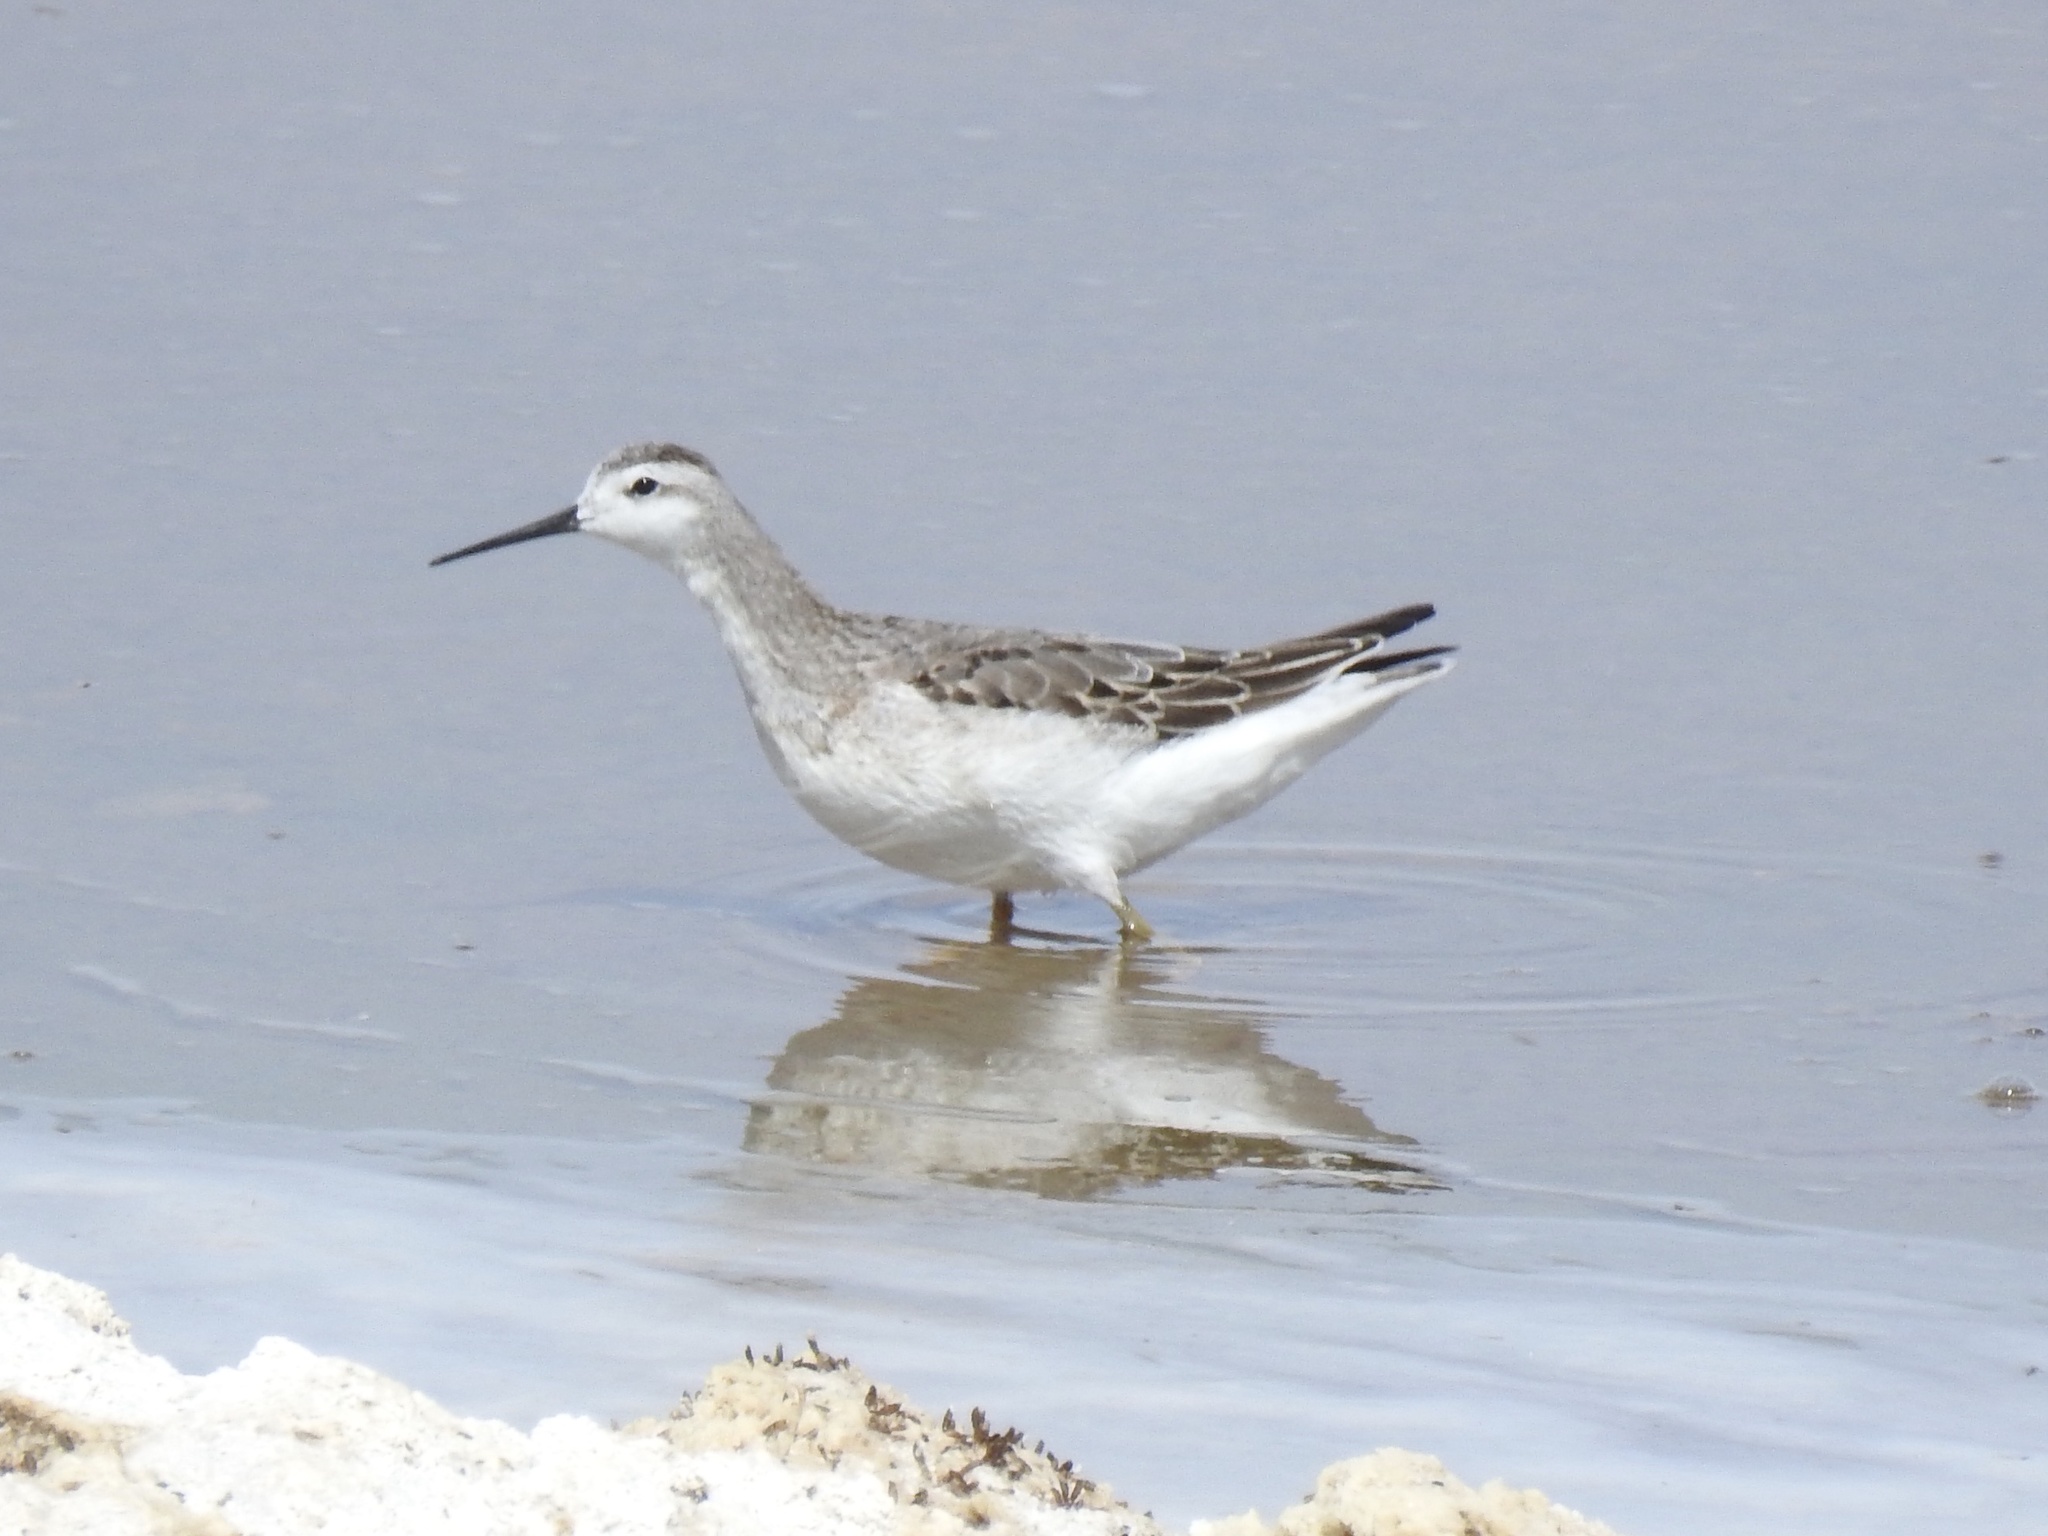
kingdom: Animalia
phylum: Chordata
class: Aves
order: Charadriiformes
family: Scolopacidae
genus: Phalaropus
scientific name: Phalaropus tricolor
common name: Wilson's phalarope
